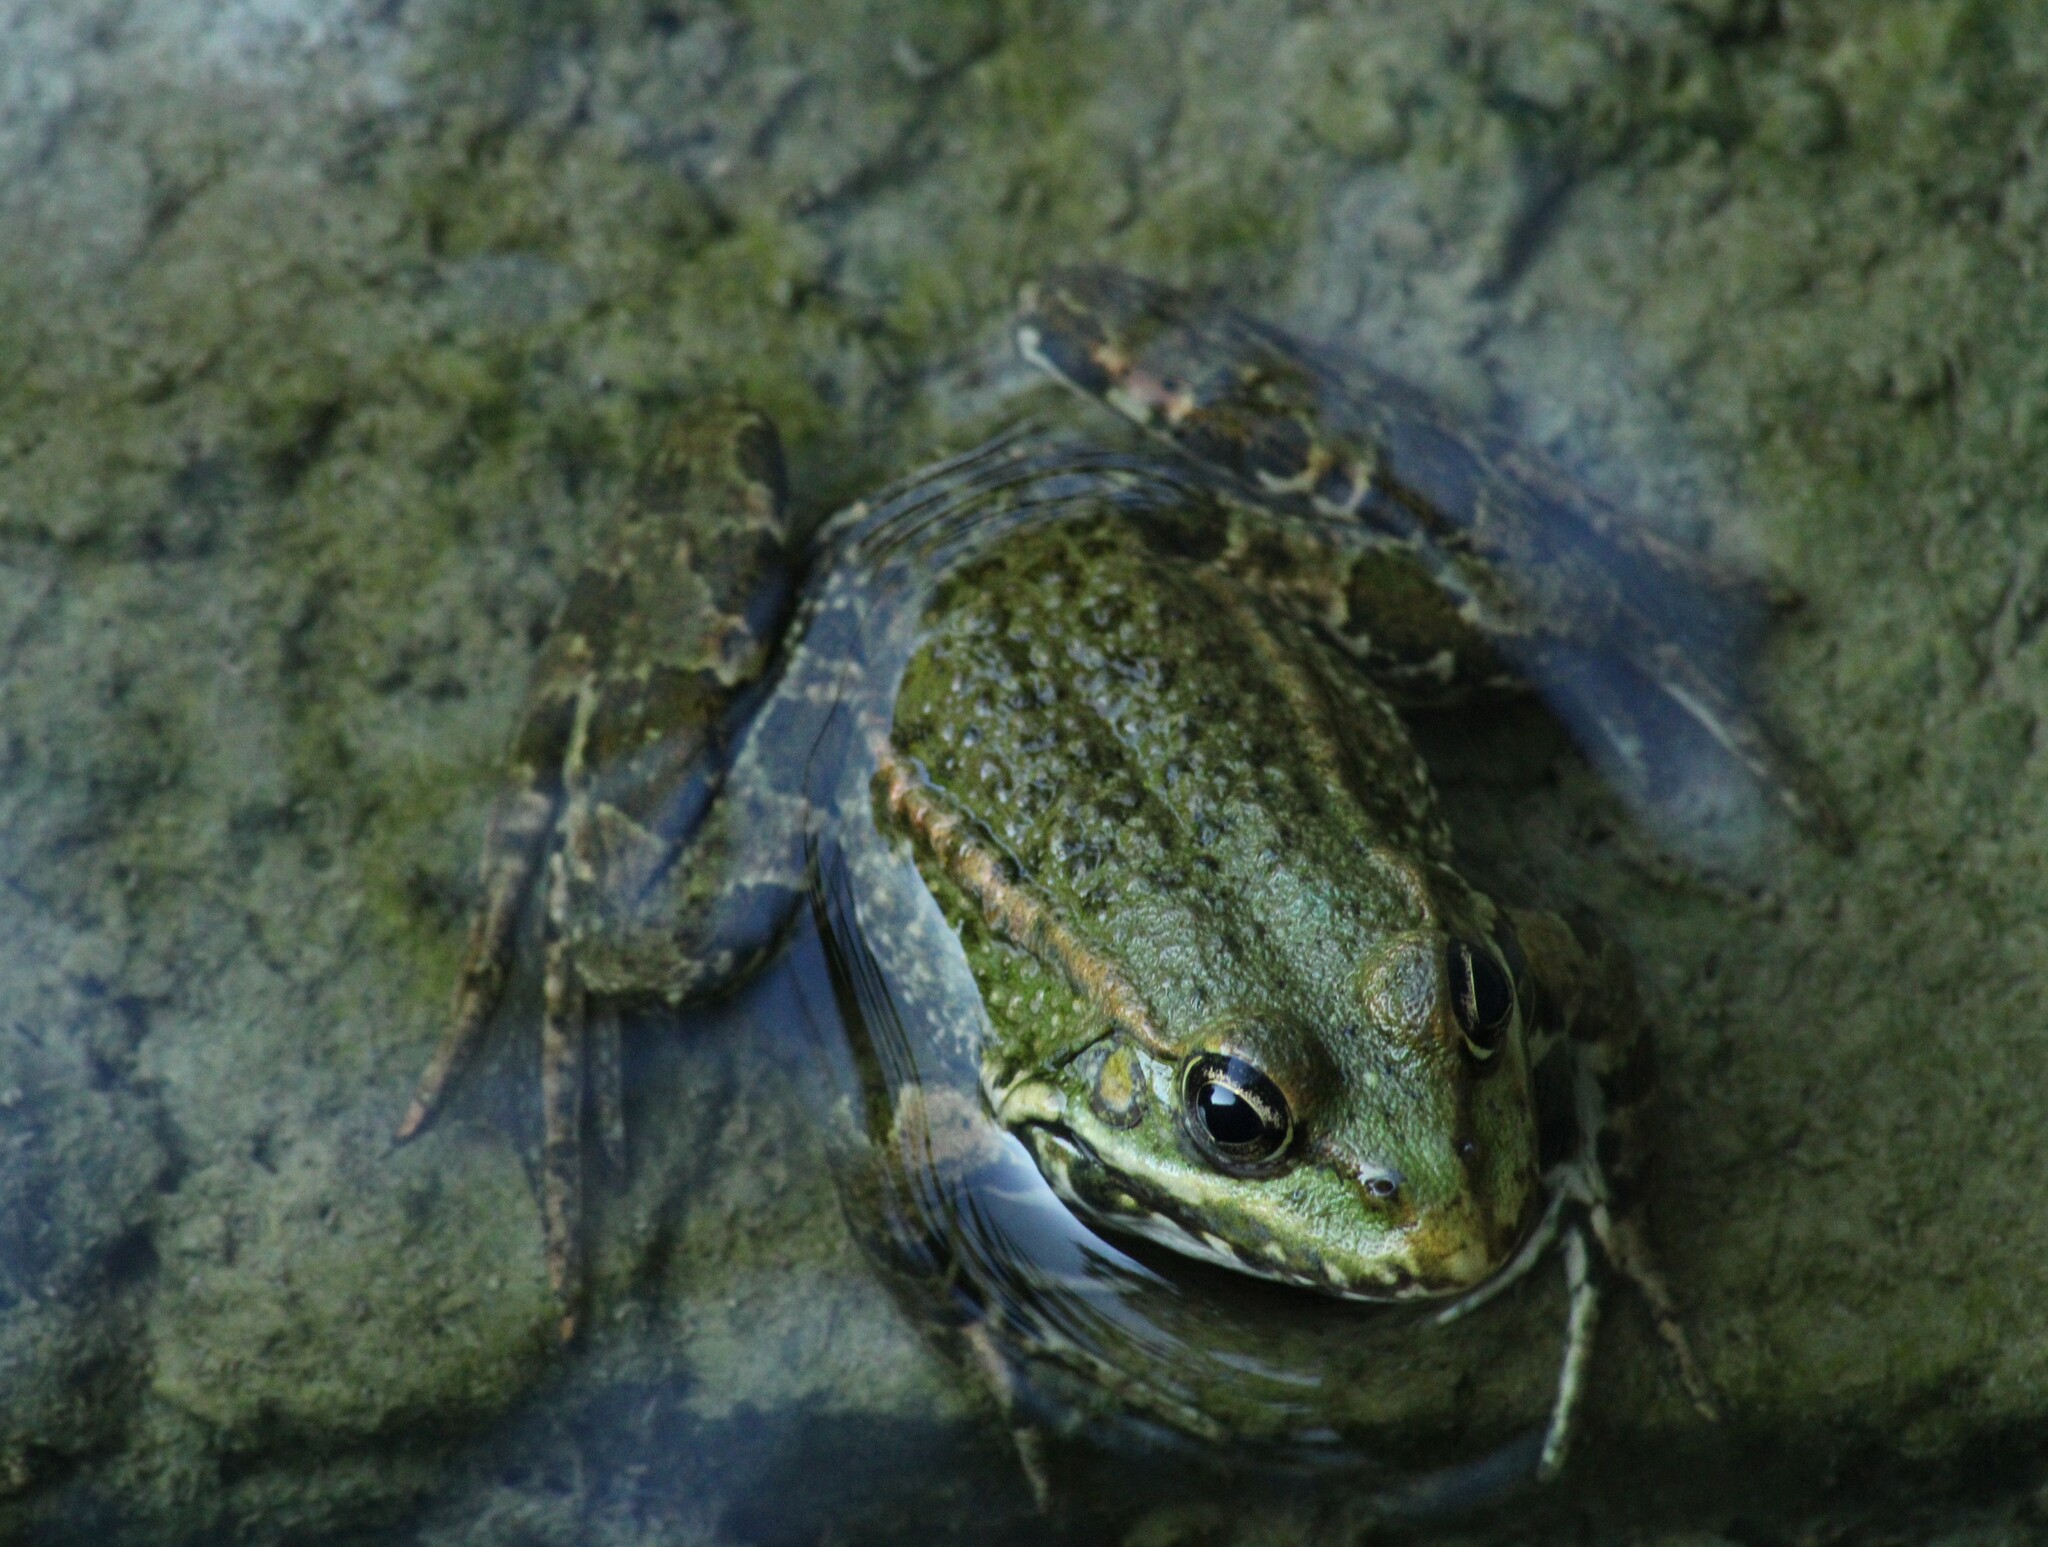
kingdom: Animalia
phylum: Chordata
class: Amphibia
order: Anura
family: Ranidae
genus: Pelophylax
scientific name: Pelophylax
